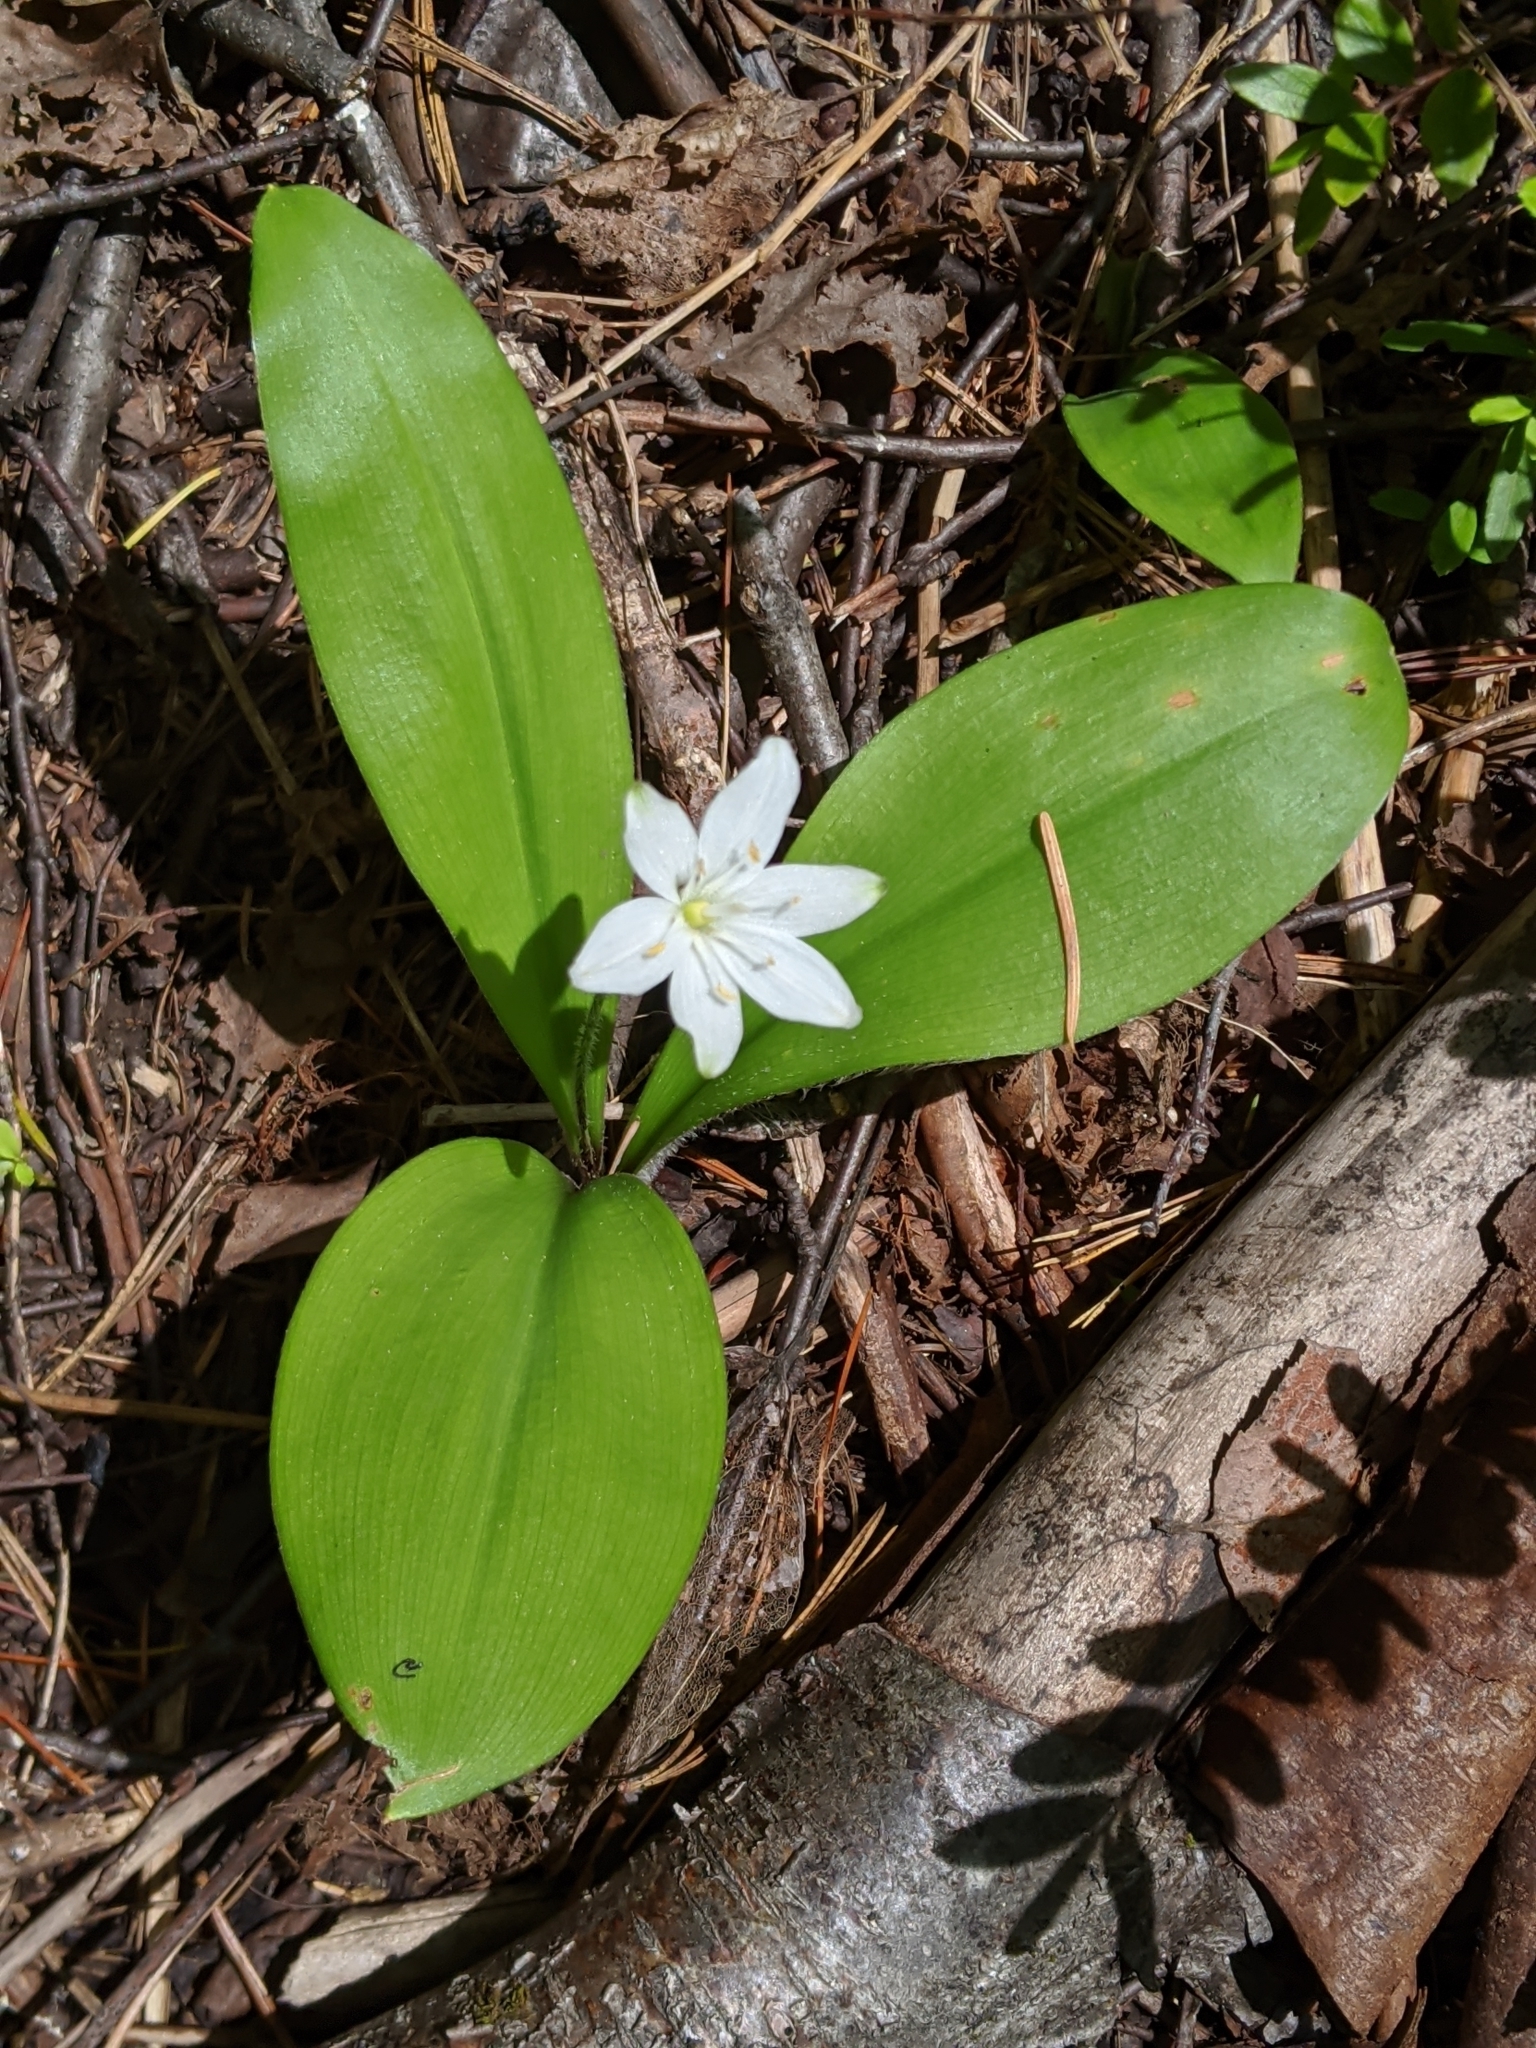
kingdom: Plantae
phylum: Tracheophyta
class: Liliopsida
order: Liliales
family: Liliaceae
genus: Clintonia
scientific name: Clintonia uniflora
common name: Queen's cup
